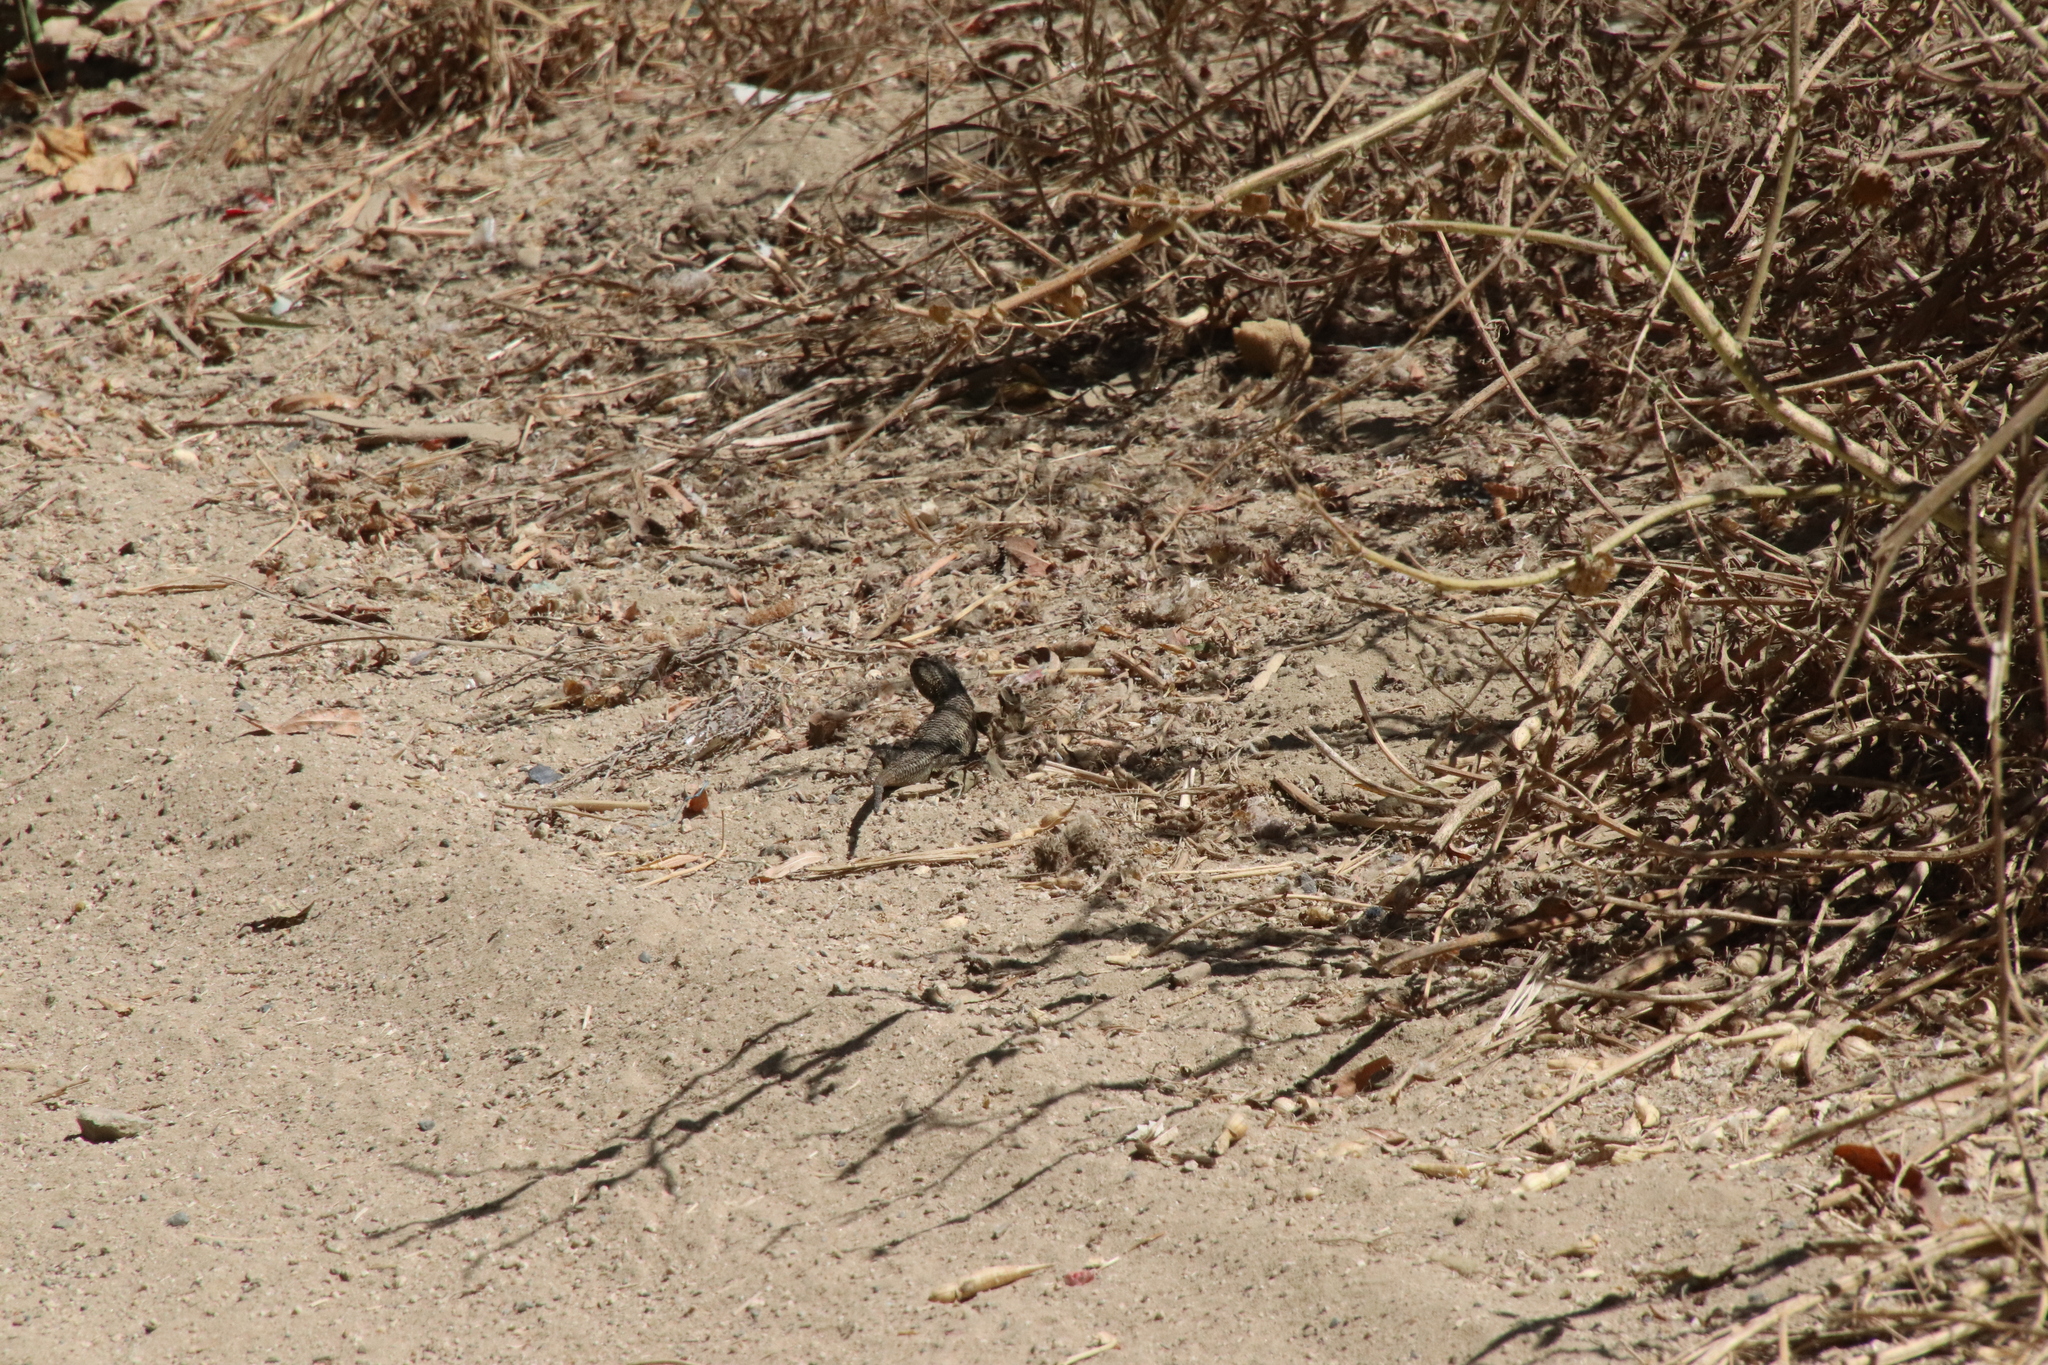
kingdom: Animalia
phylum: Chordata
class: Squamata
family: Phrynosomatidae
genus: Sceloporus
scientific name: Sceloporus occidentalis
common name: Western fence lizard
